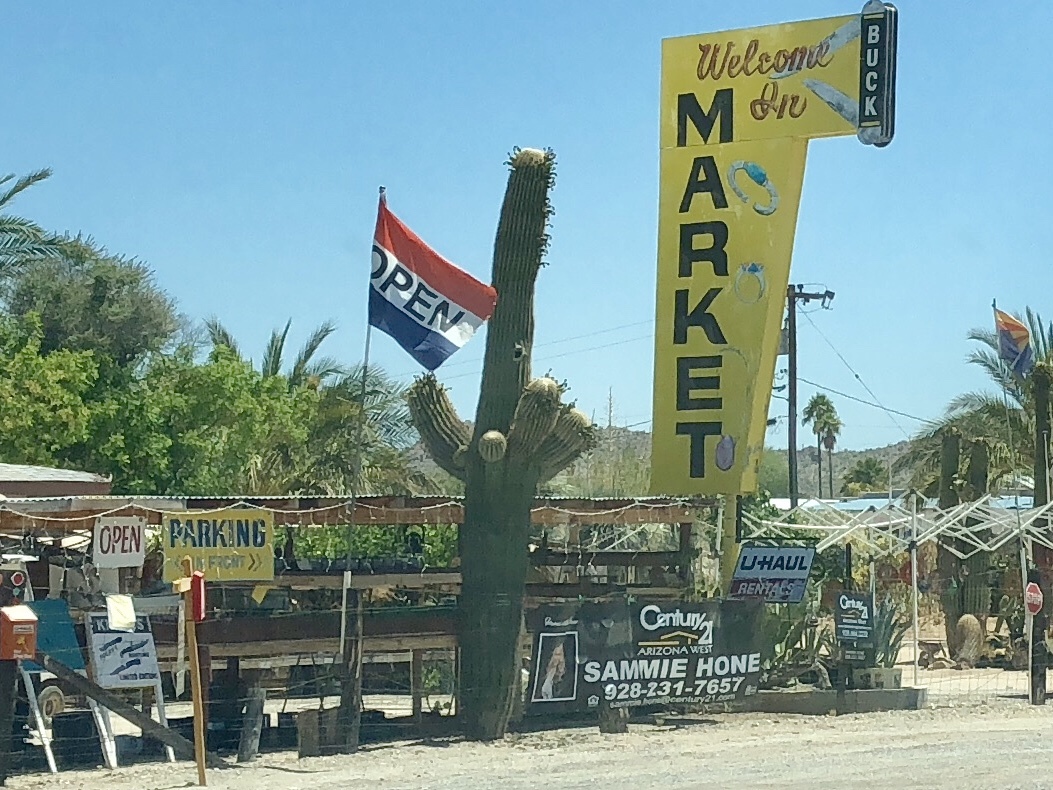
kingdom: Plantae
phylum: Tracheophyta
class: Magnoliopsida
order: Caryophyllales
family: Cactaceae
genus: Carnegiea
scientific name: Carnegiea gigantea
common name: Saguaro
